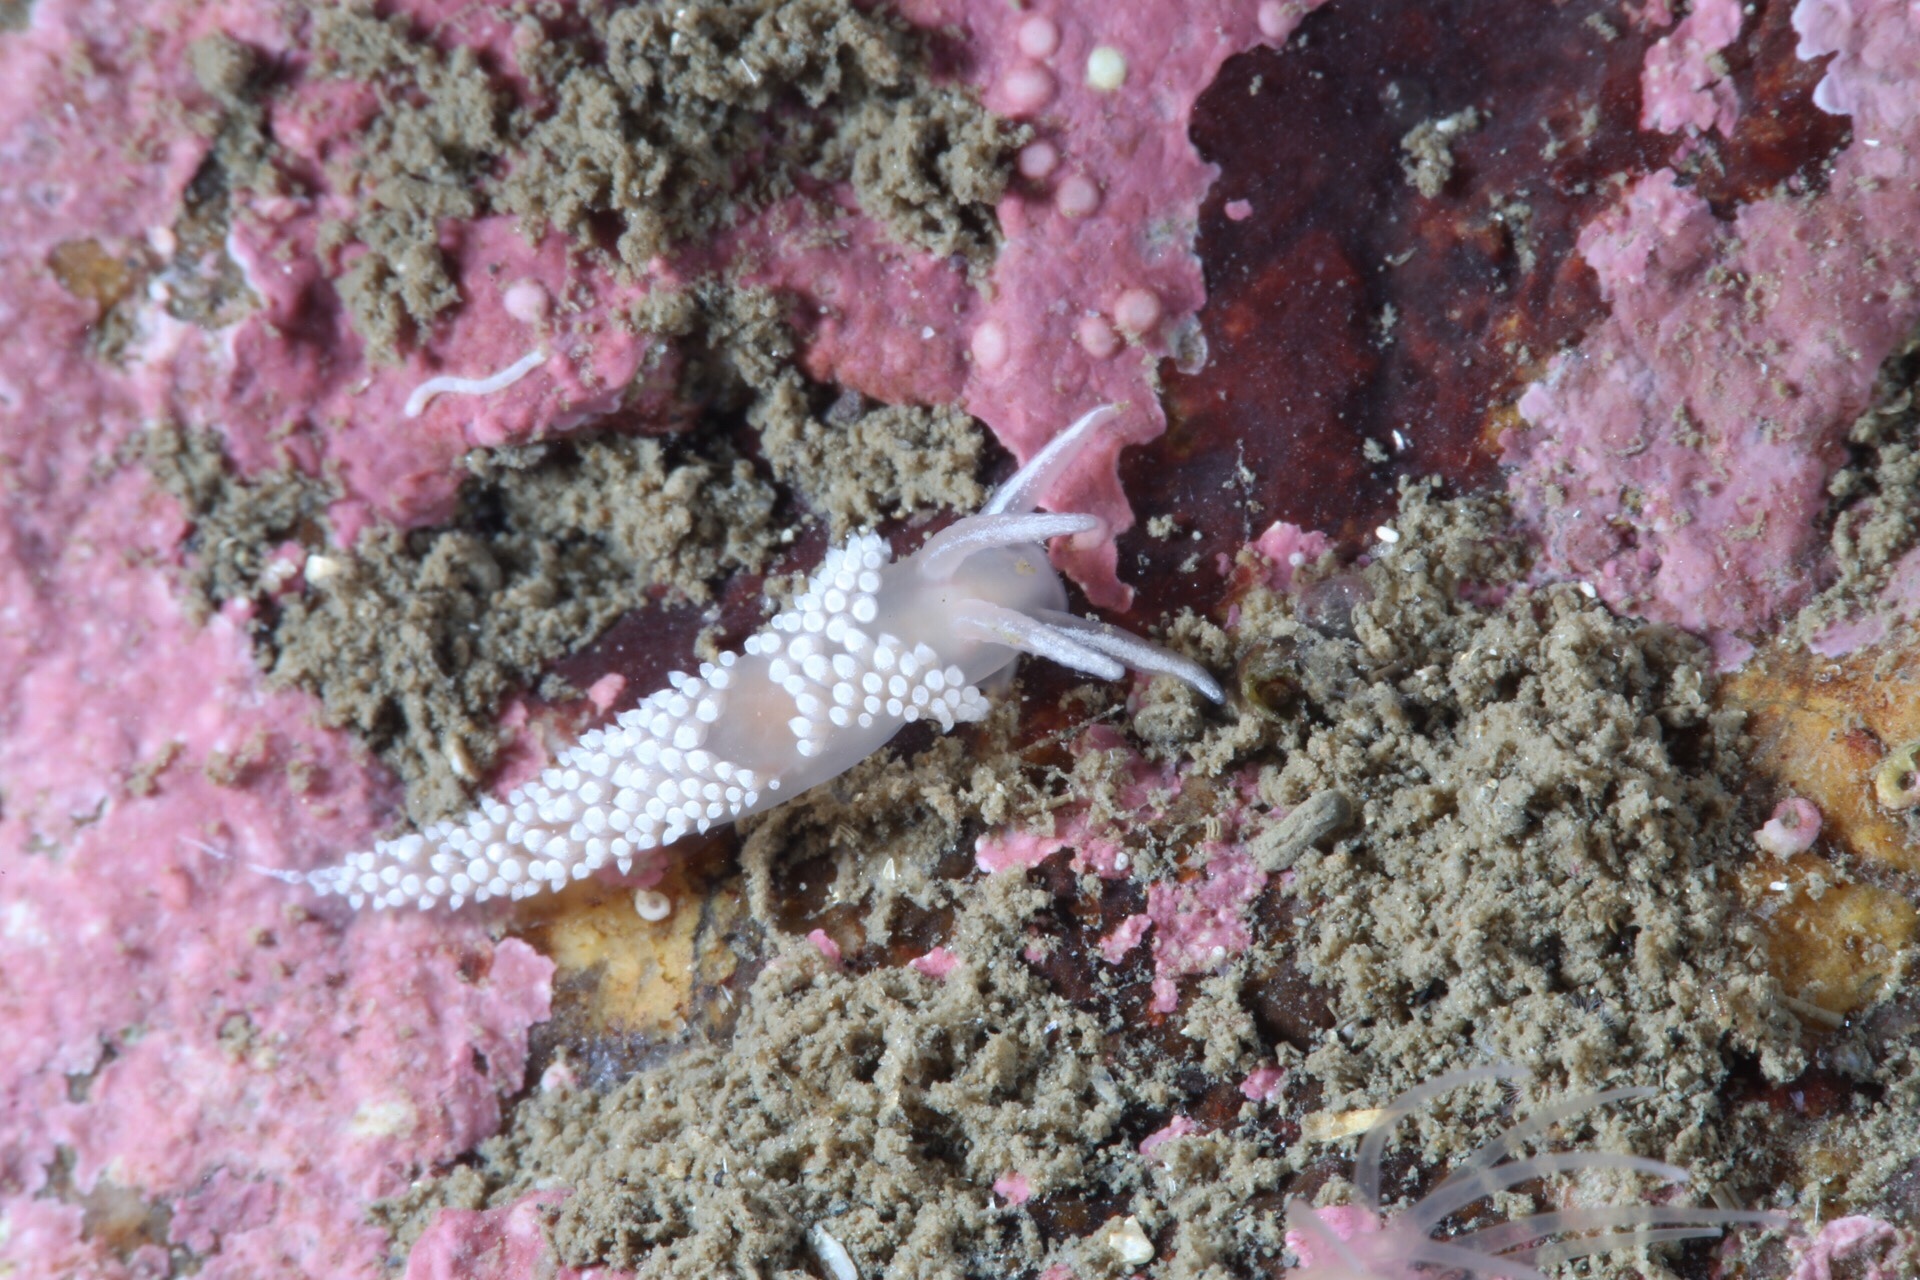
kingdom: Animalia
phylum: Mollusca
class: Gastropoda
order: Nudibranchia
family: Coryphellidae
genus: Coryphella
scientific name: Coryphella verrucosa
